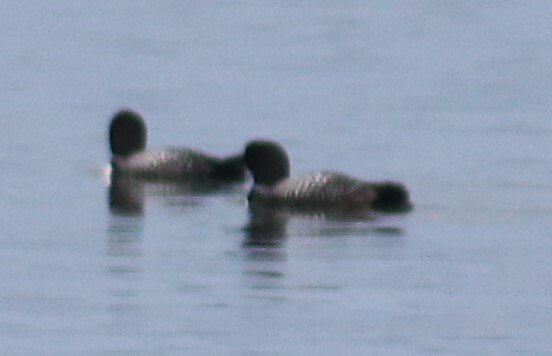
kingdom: Animalia
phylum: Chordata
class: Aves
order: Gaviiformes
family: Gaviidae
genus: Gavia
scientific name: Gavia immer
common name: Common loon
